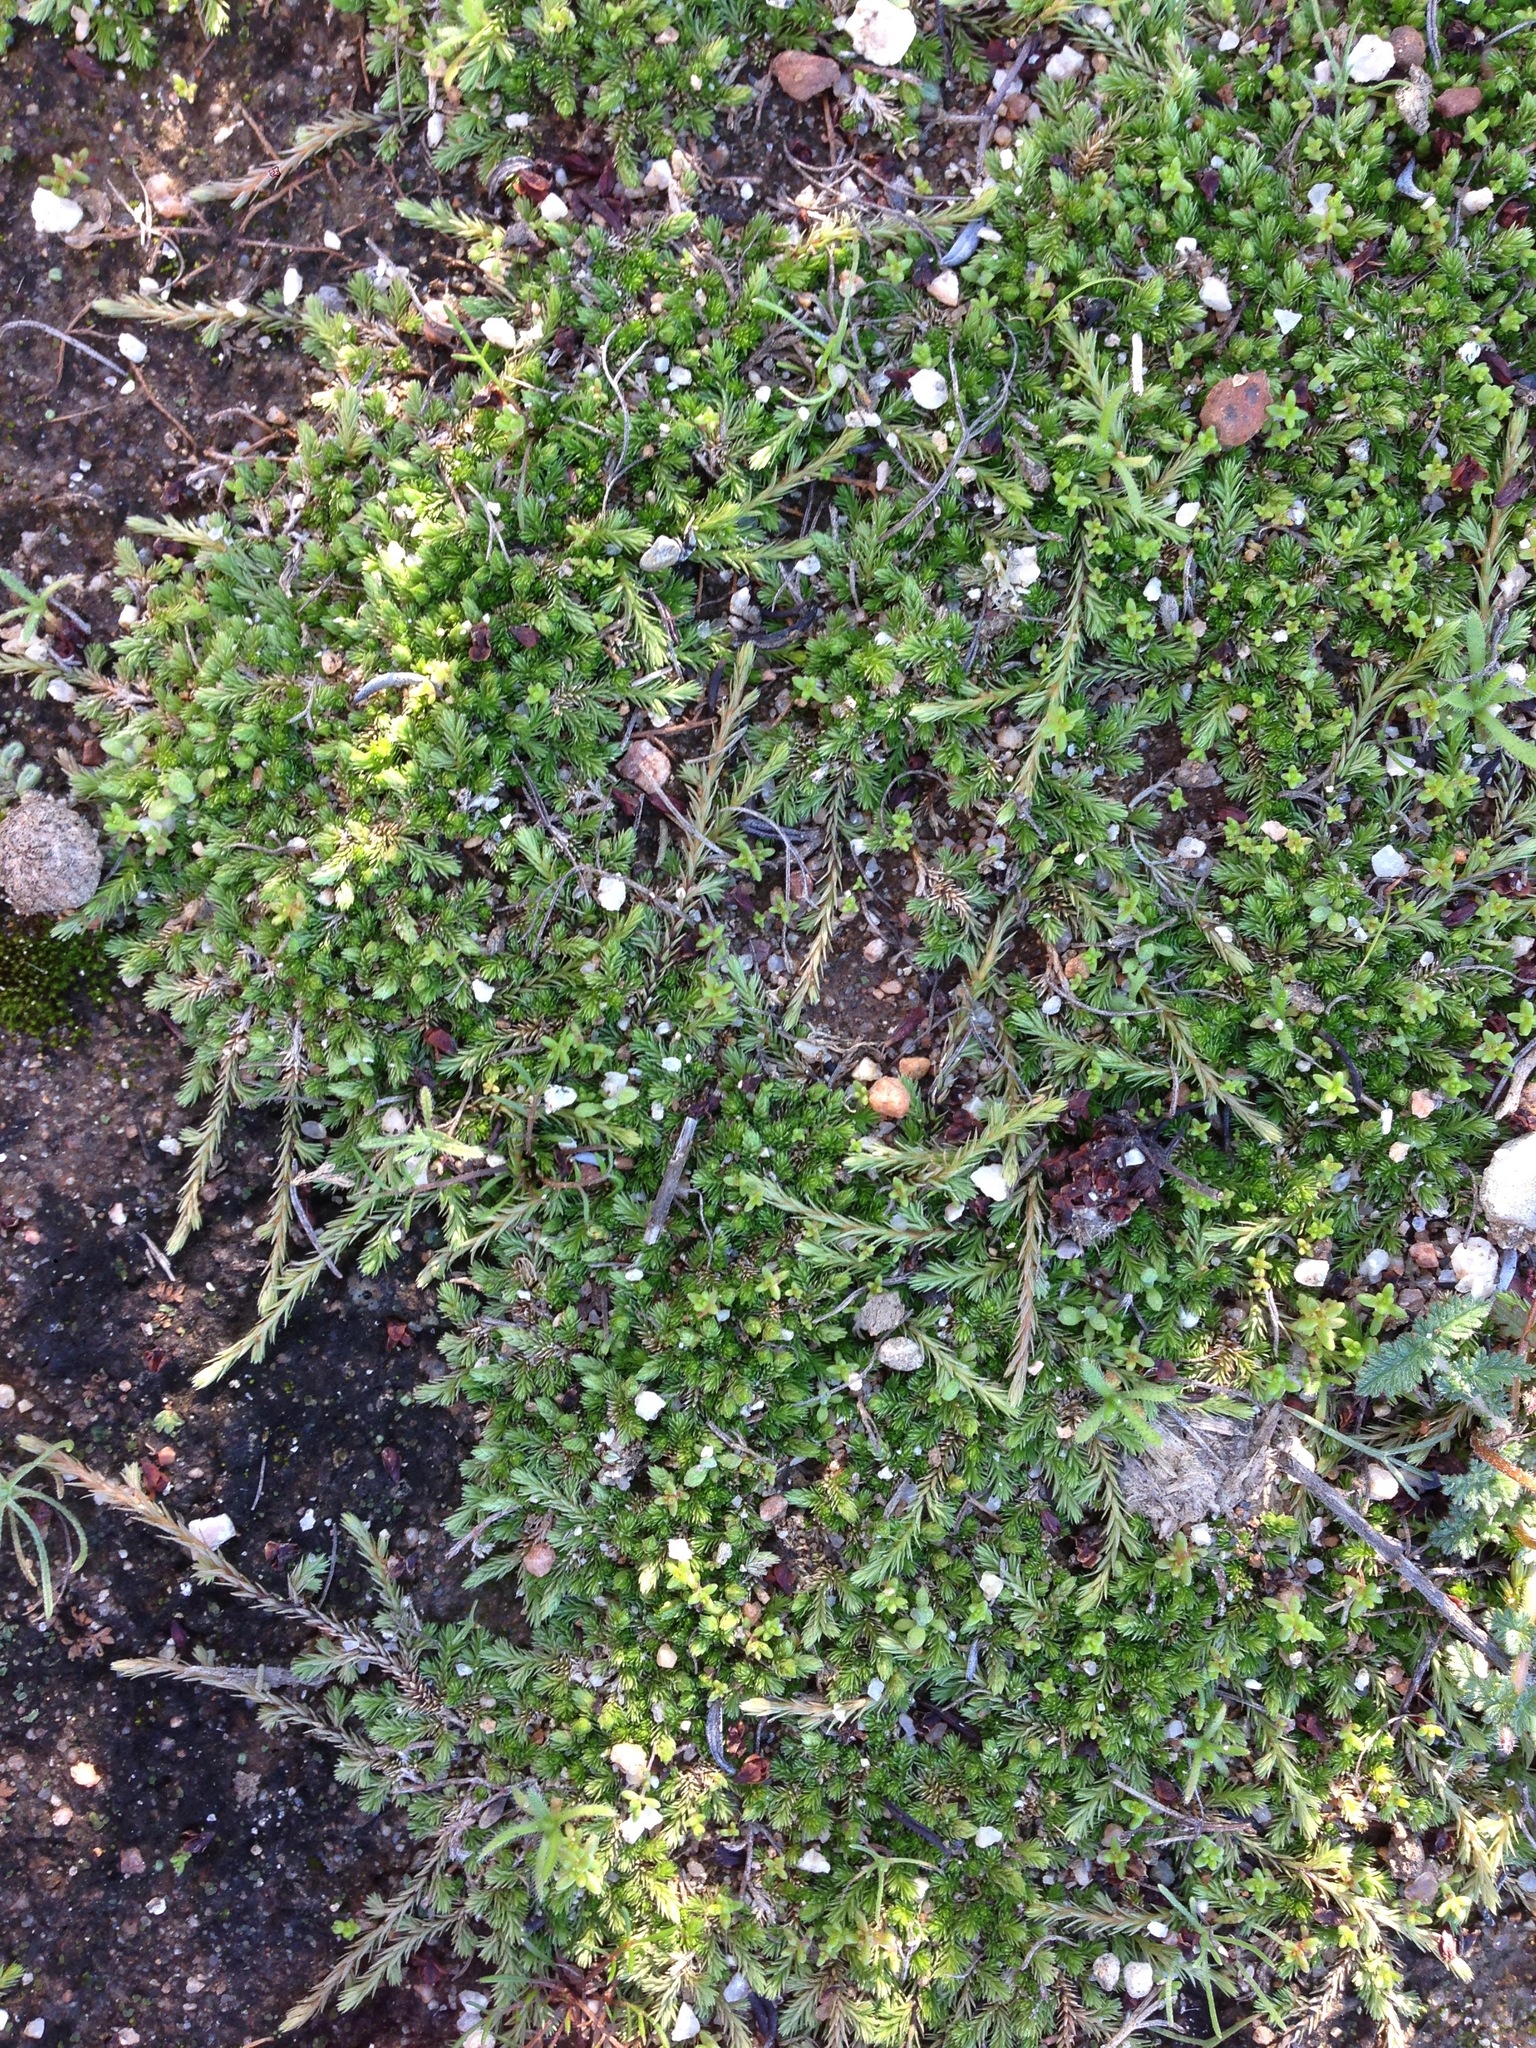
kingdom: Plantae
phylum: Tracheophyta
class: Lycopodiopsida
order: Selaginellales
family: Selaginellaceae
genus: Selaginella
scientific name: Selaginella cinerascens
